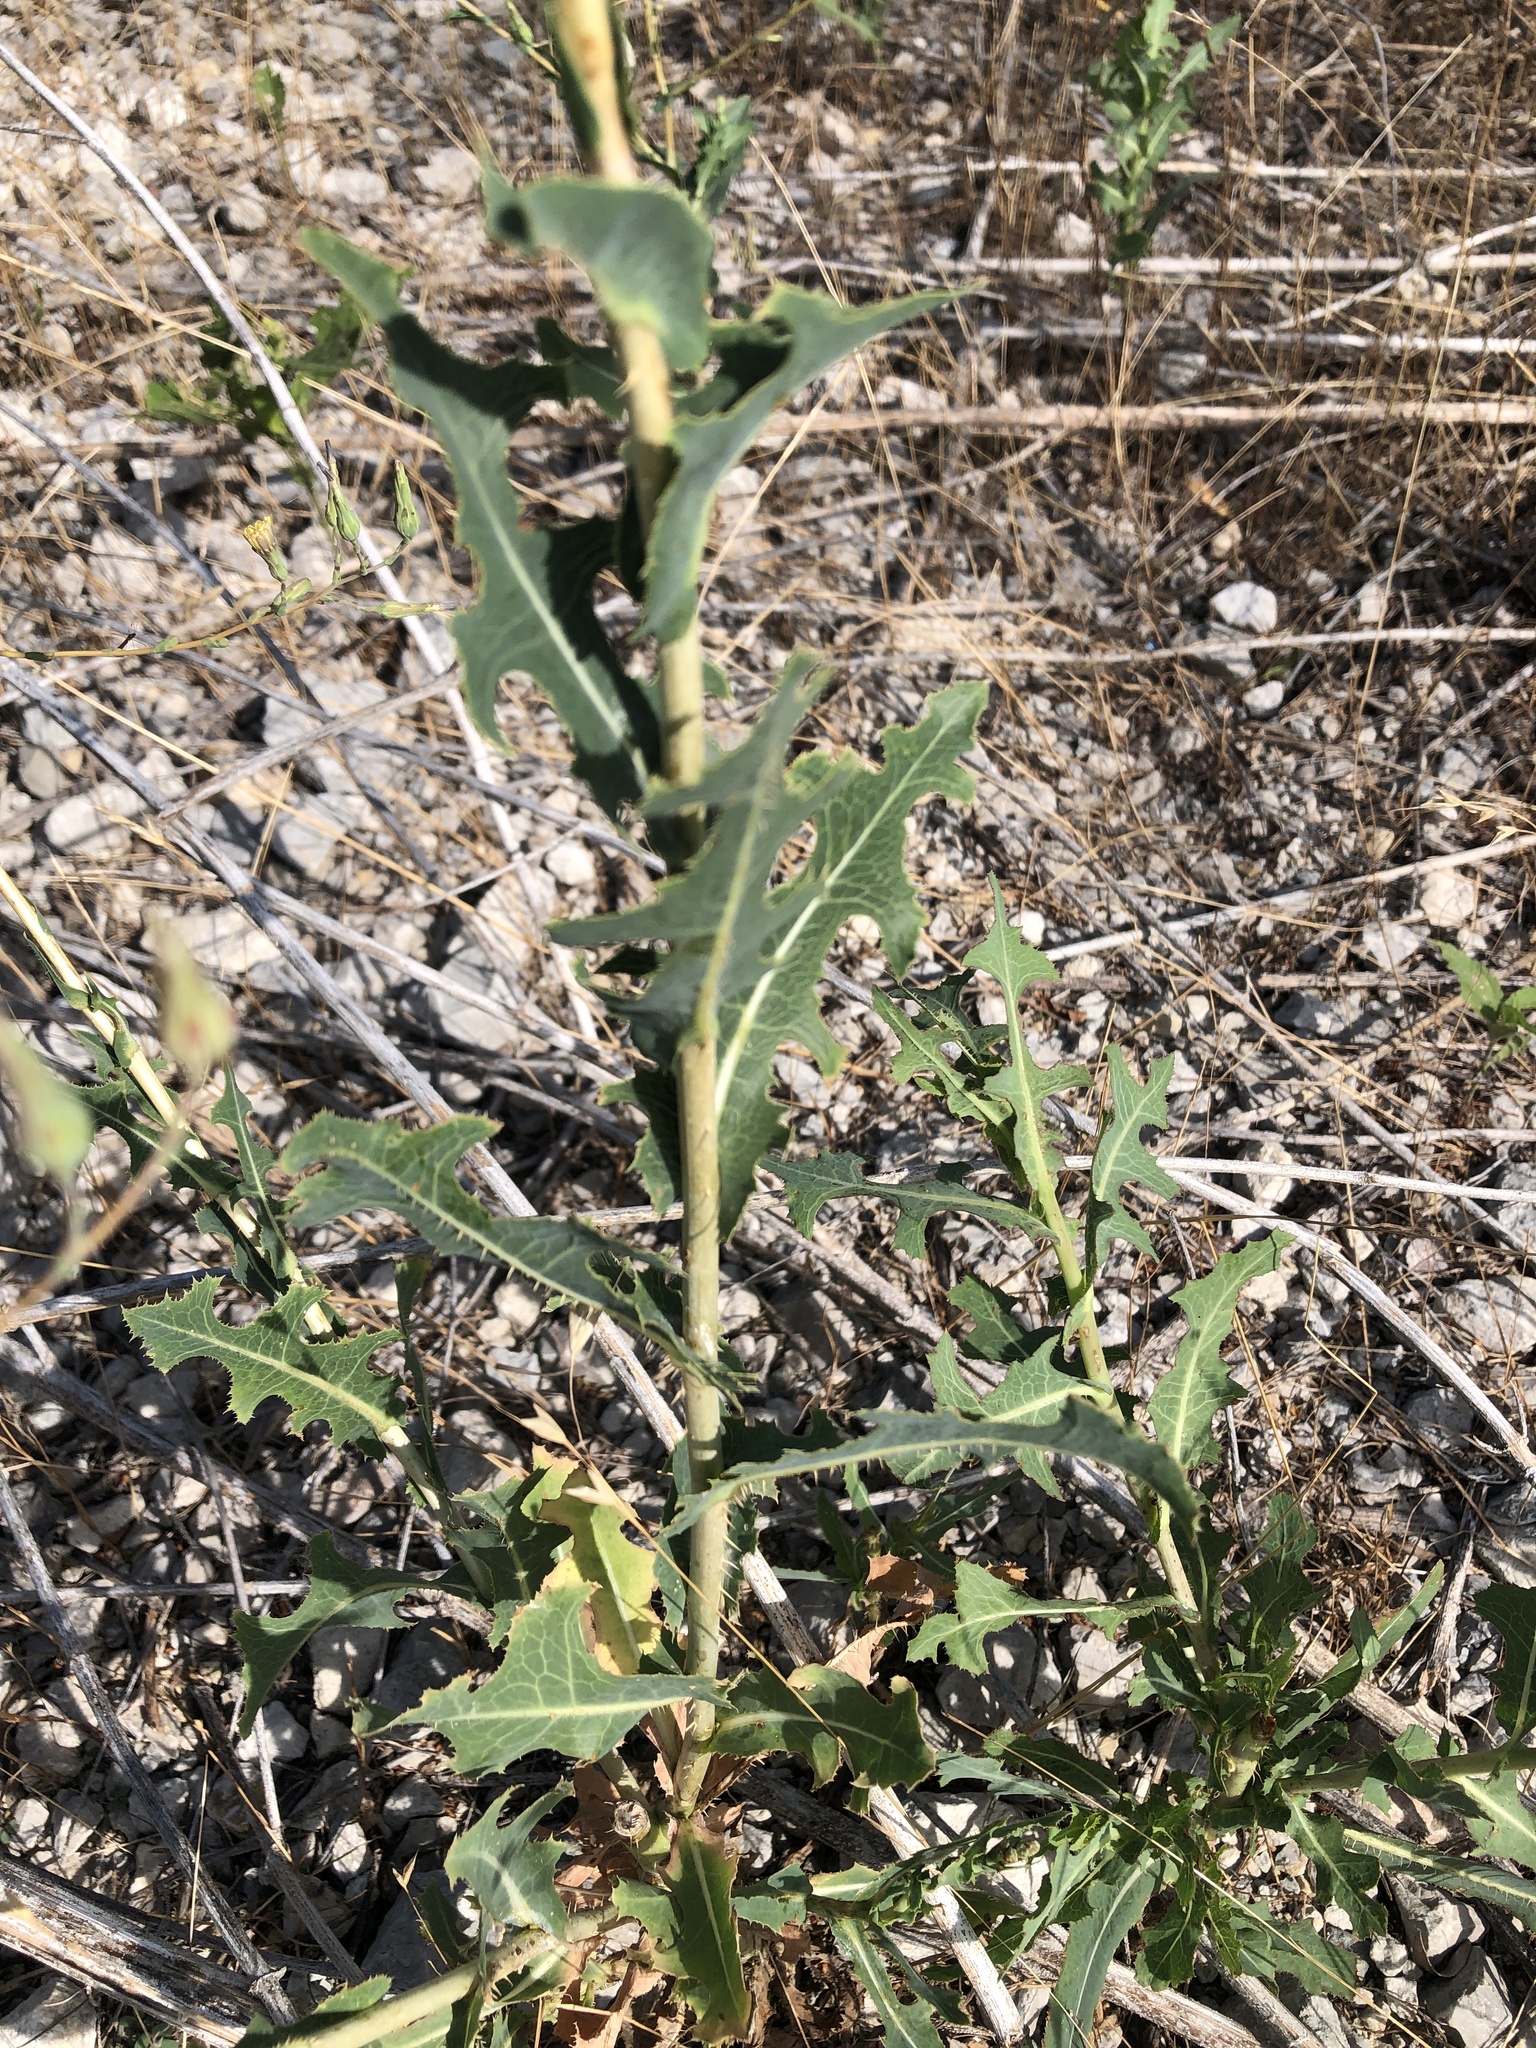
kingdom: Plantae
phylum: Tracheophyta
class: Magnoliopsida
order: Asterales
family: Asteraceae
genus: Lactuca
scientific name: Lactuca serriola
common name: Prickly lettuce
